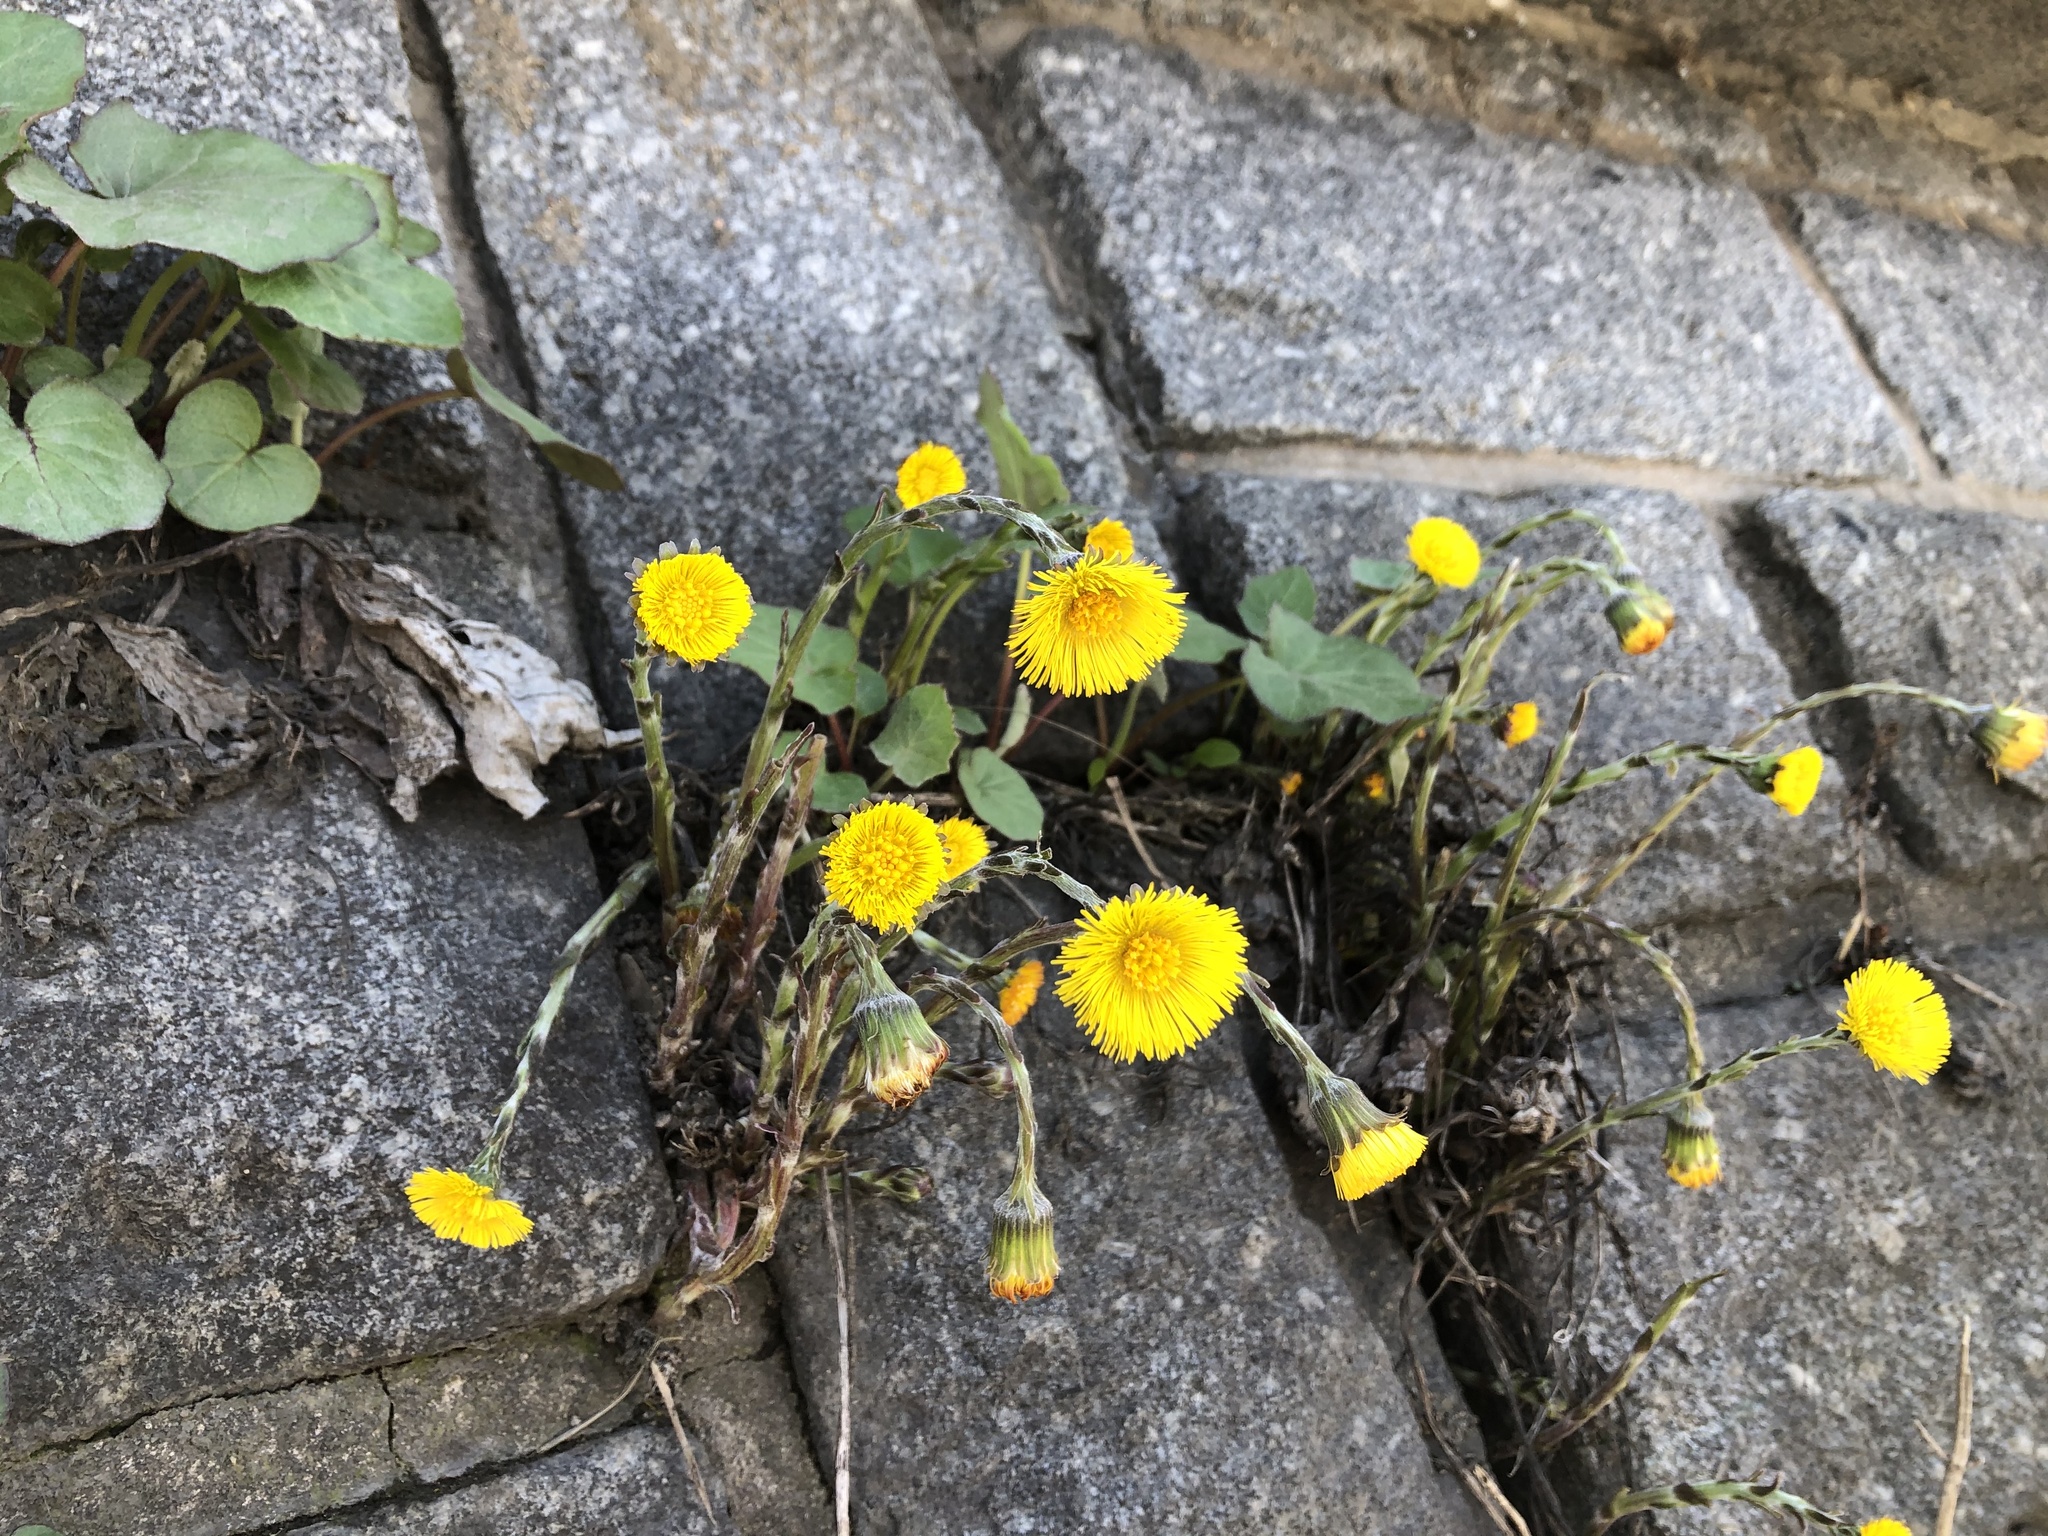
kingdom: Plantae
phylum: Tracheophyta
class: Magnoliopsida
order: Asterales
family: Asteraceae
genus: Tussilago
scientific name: Tussilago farfara
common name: Coltsfoot
